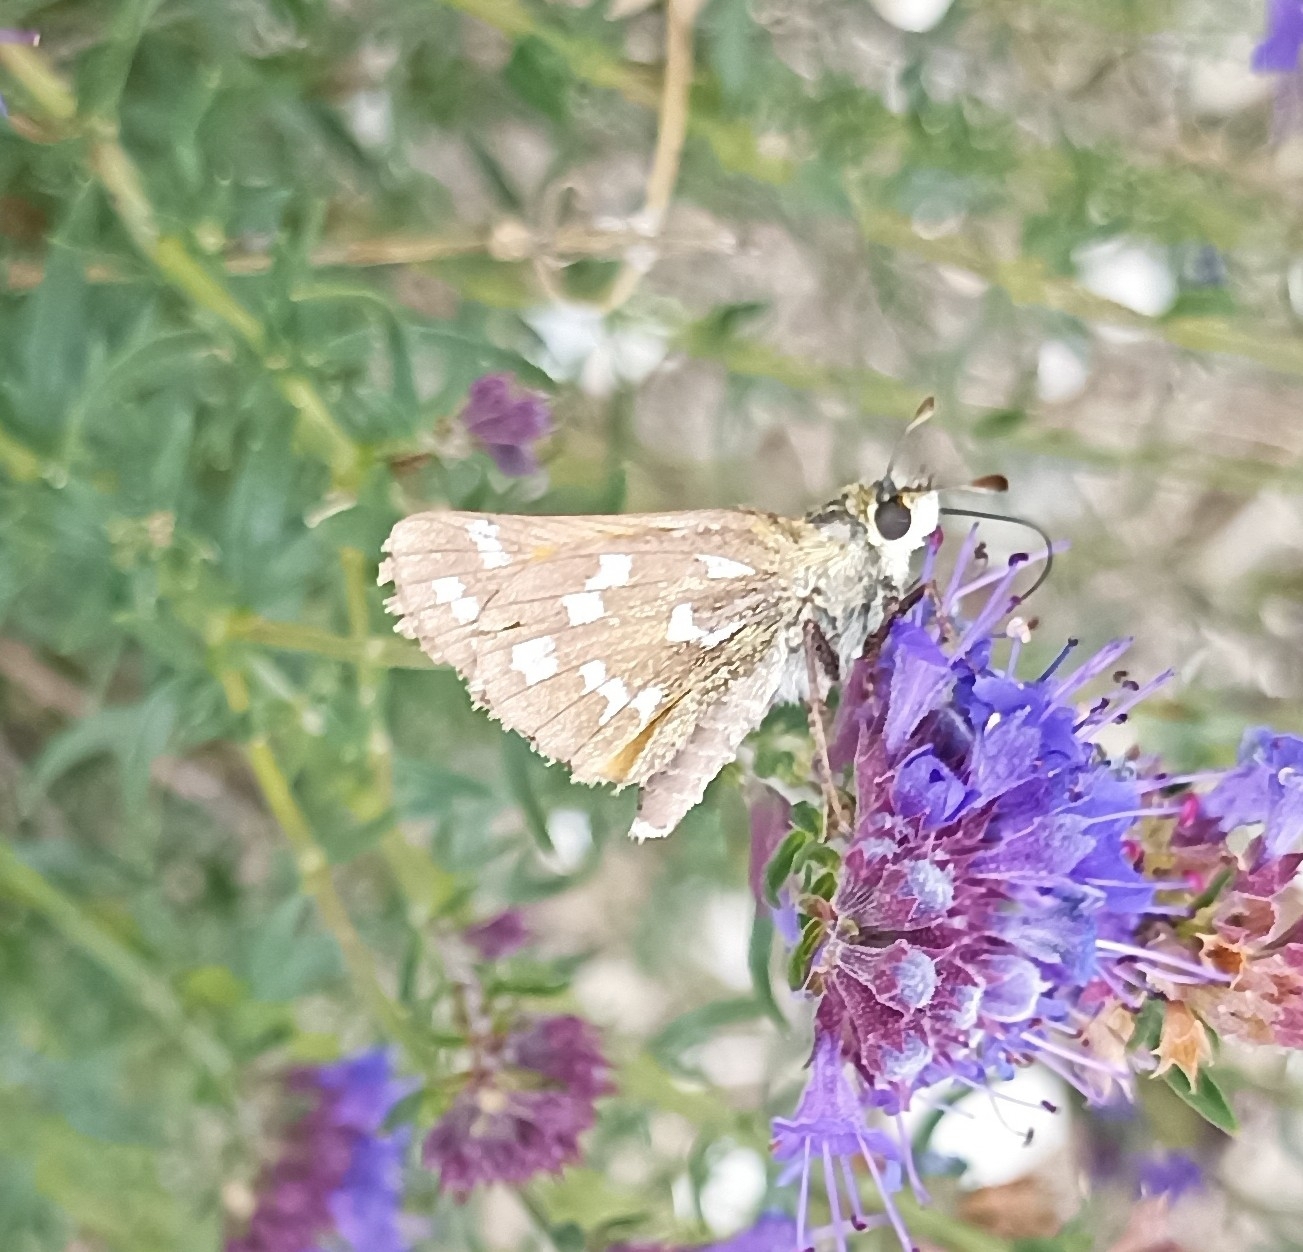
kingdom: Animalia
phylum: Arthropoda
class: Insecta
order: Lepidoptera
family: Hesperiidae
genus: Hesperia
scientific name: Hesperia comma
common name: Common branded skipper
